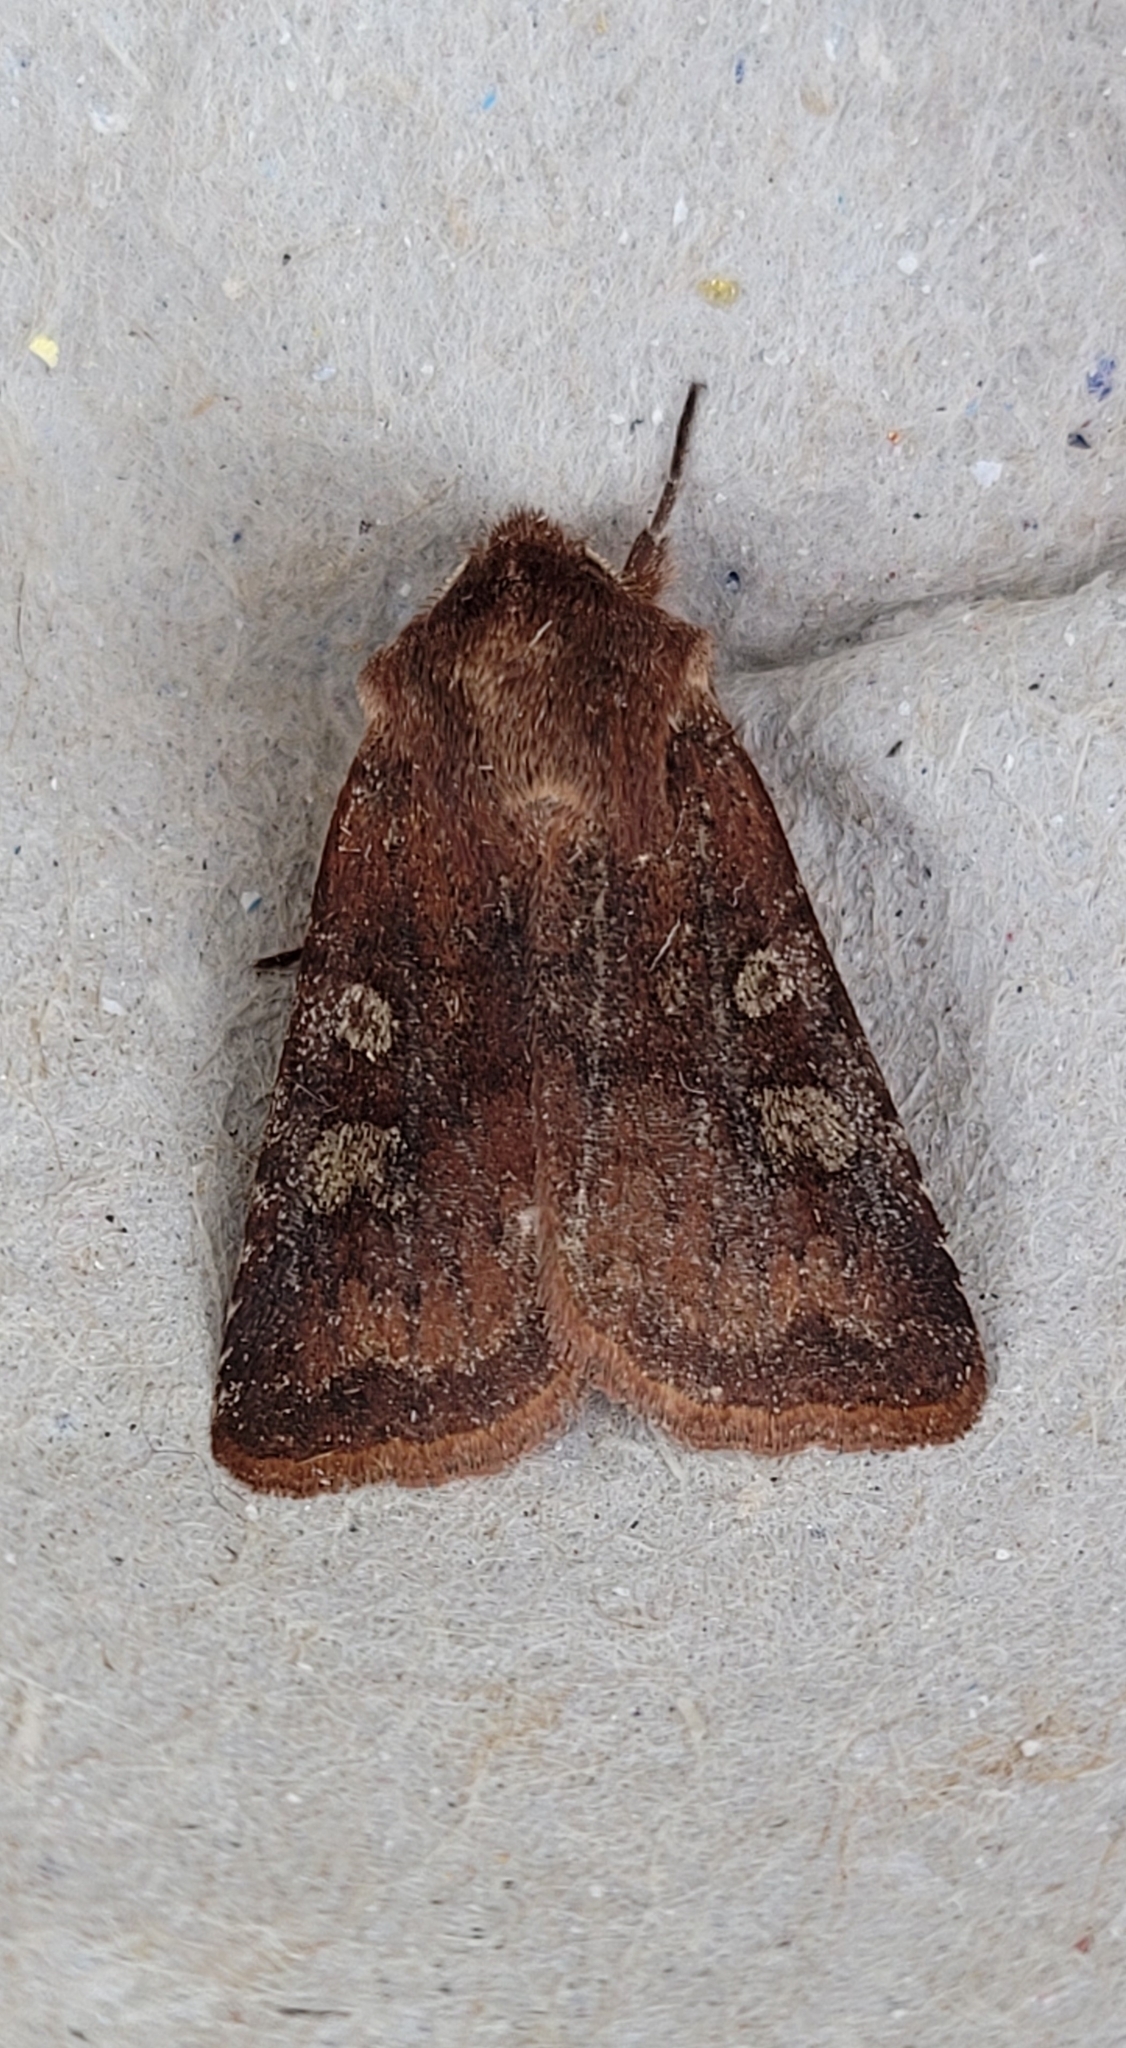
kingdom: Animalia
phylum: Arthropoda
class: Insecta
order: Lepidoptera
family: Noctuidae
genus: Cerastis
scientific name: Cerastis leucographa
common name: White-marked
